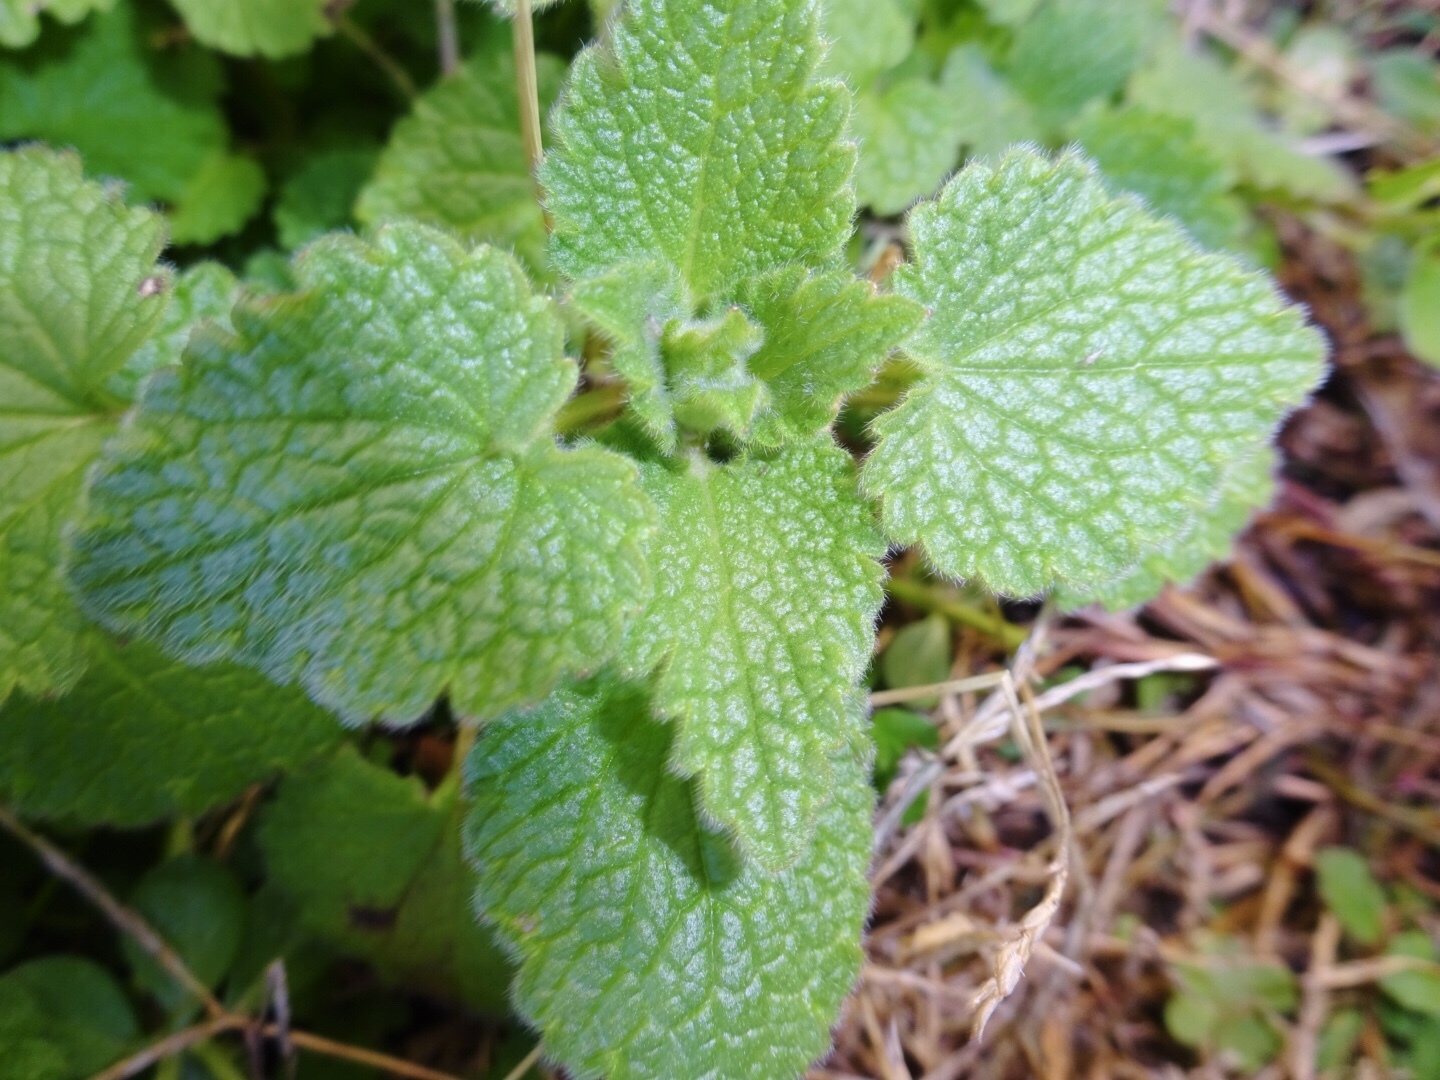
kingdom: Plantae
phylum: Tracheophyta
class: Magnoliopsida
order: Lamiales
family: Lamiaceae
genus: Lamium
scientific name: Lamium purpureum
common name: Red dead-nettle
